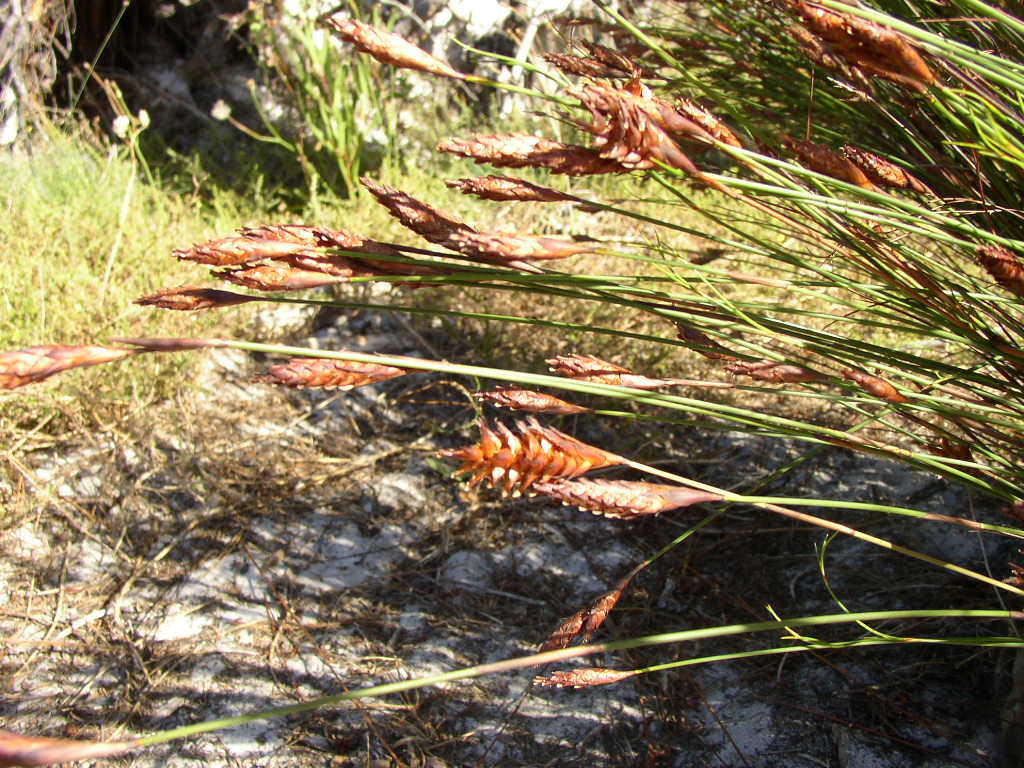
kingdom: Plantae
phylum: Tracheophyta
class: Liliopsida
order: Poales
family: Restionaceae
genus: Staberoha
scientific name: Staberoha distachyos
